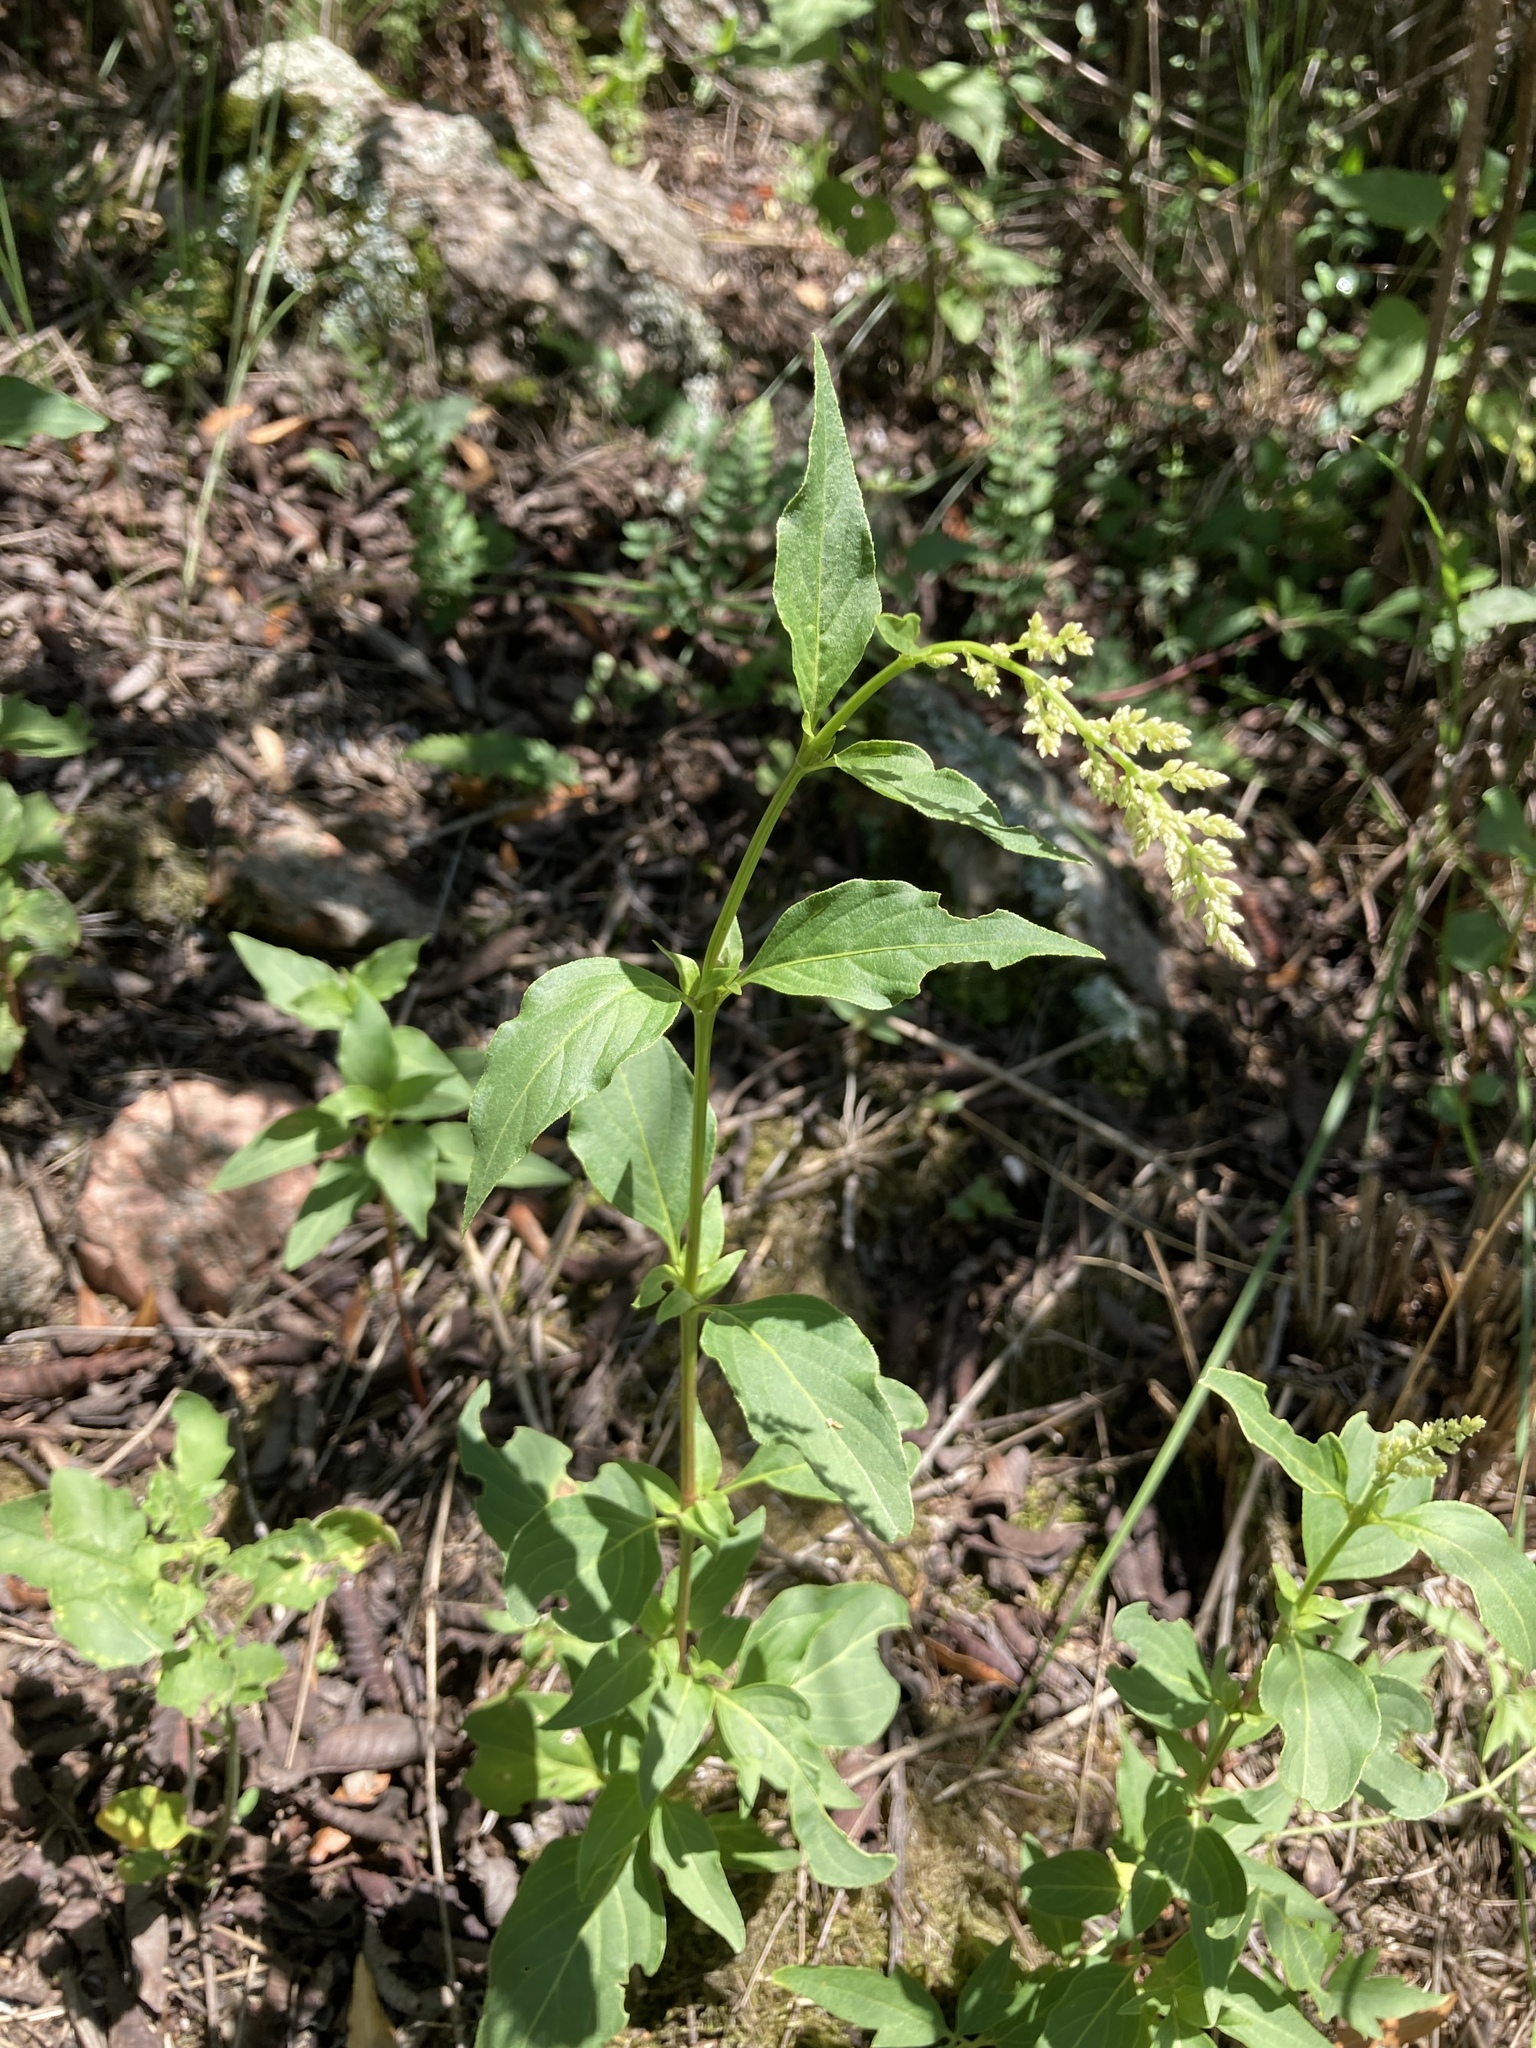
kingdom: Plantae
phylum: Tracheophyta
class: Magnoliopsida
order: Caryophyllales
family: Amaranthaceae
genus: Iresine
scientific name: Iresine diffusa
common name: Juba's-bush
